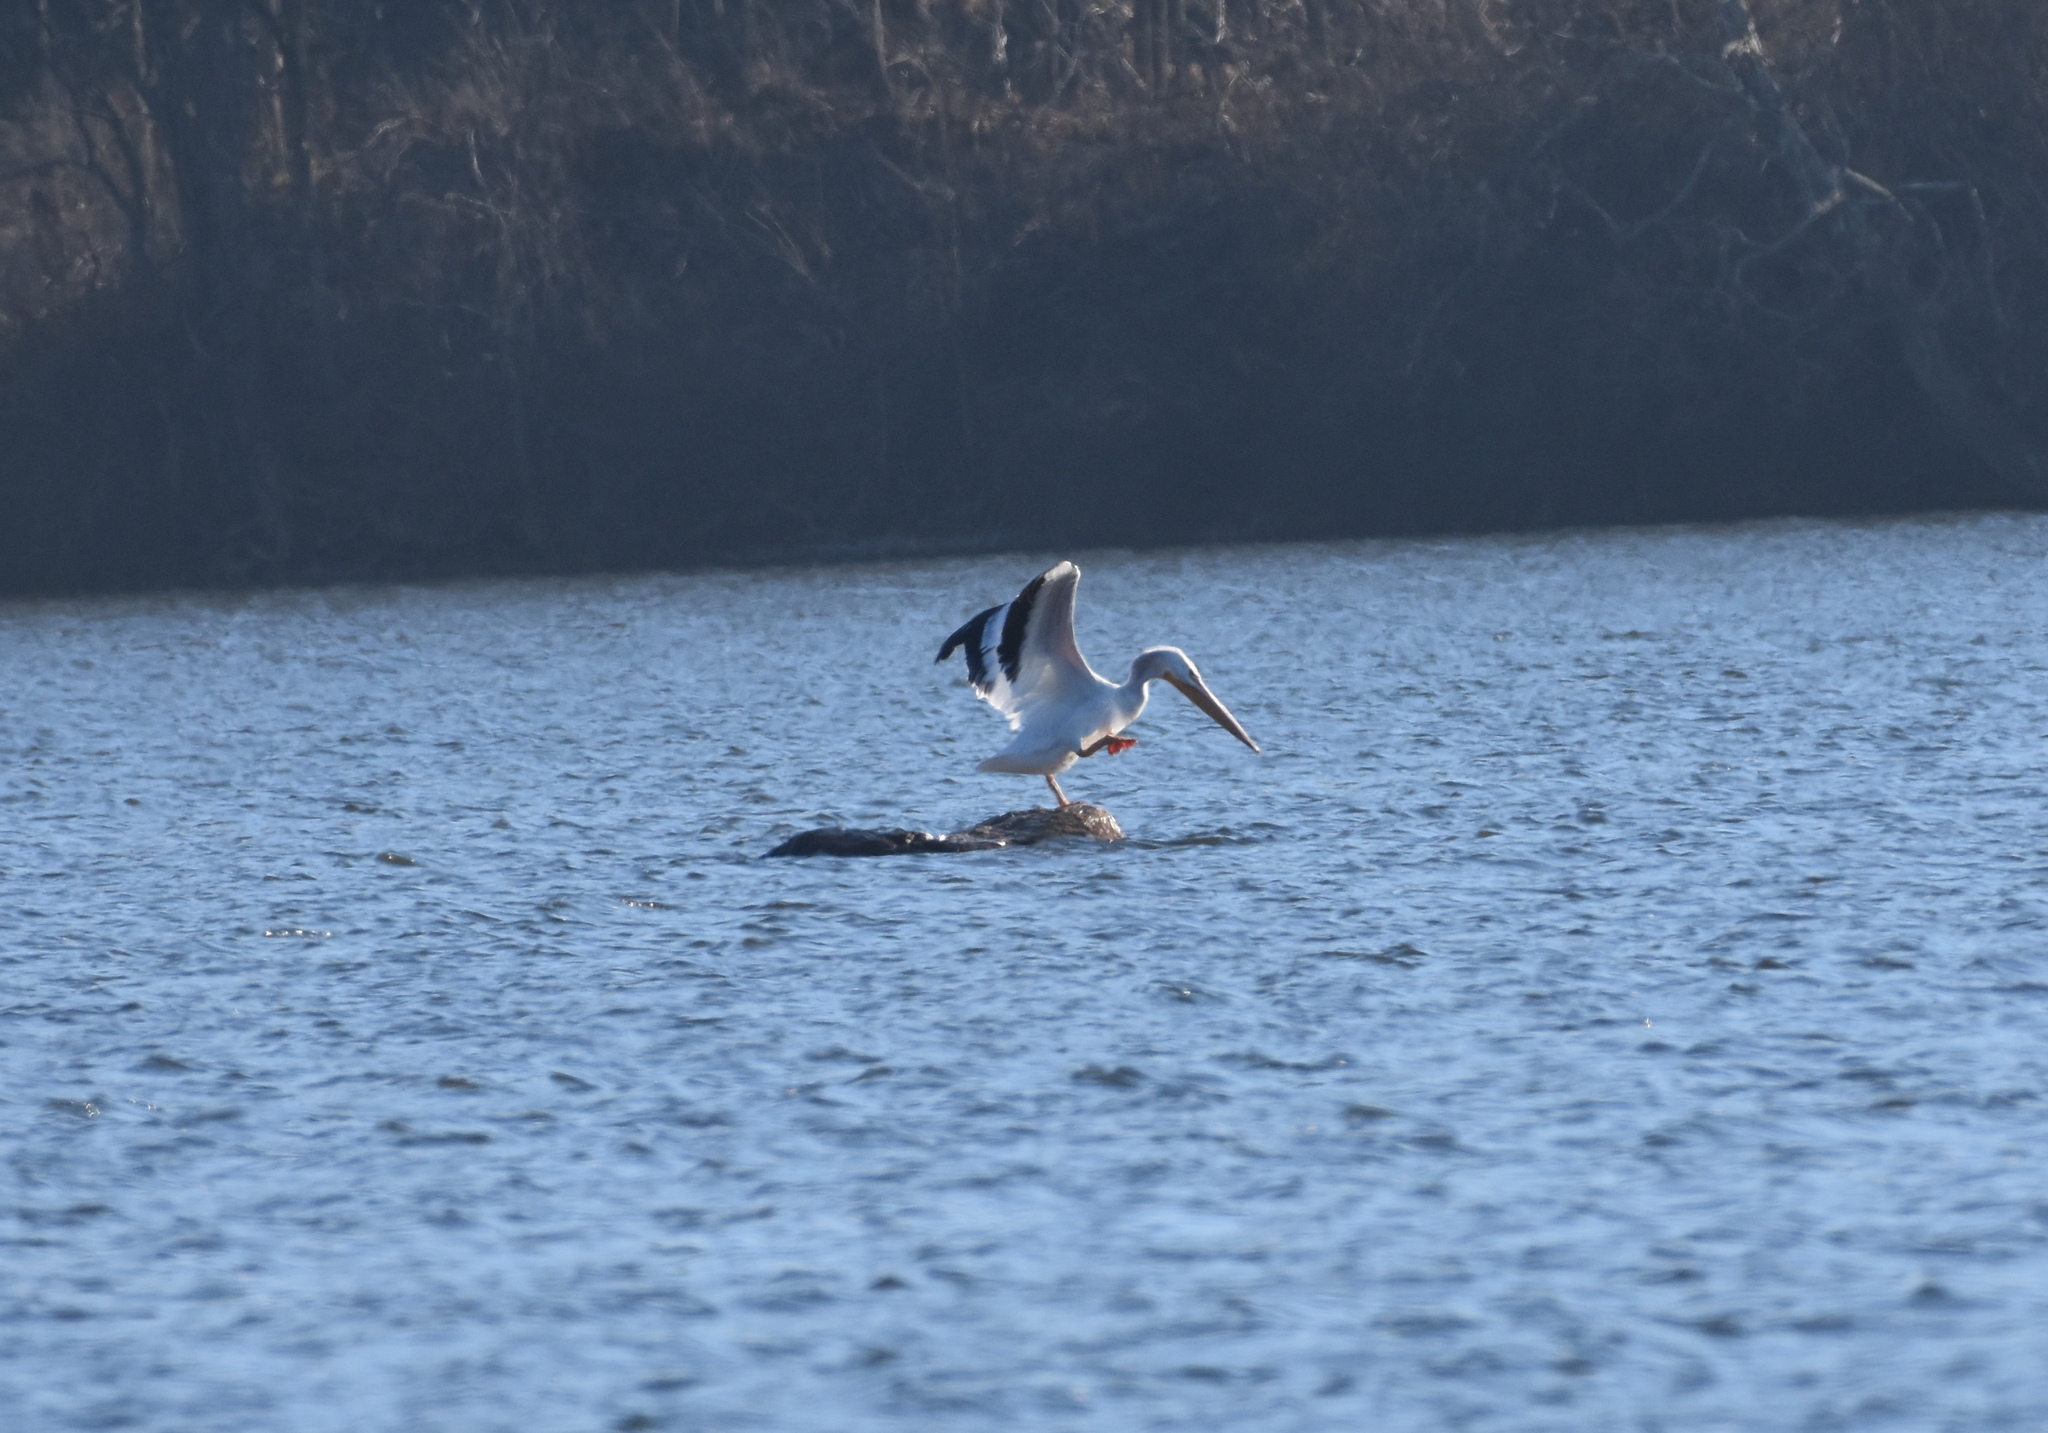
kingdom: Animalia
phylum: Chordata
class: Aves
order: Pelecaniformes
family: Pelecanidae
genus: Pelecanus
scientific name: Pelecanus erythrorhynchos
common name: American white pelican
